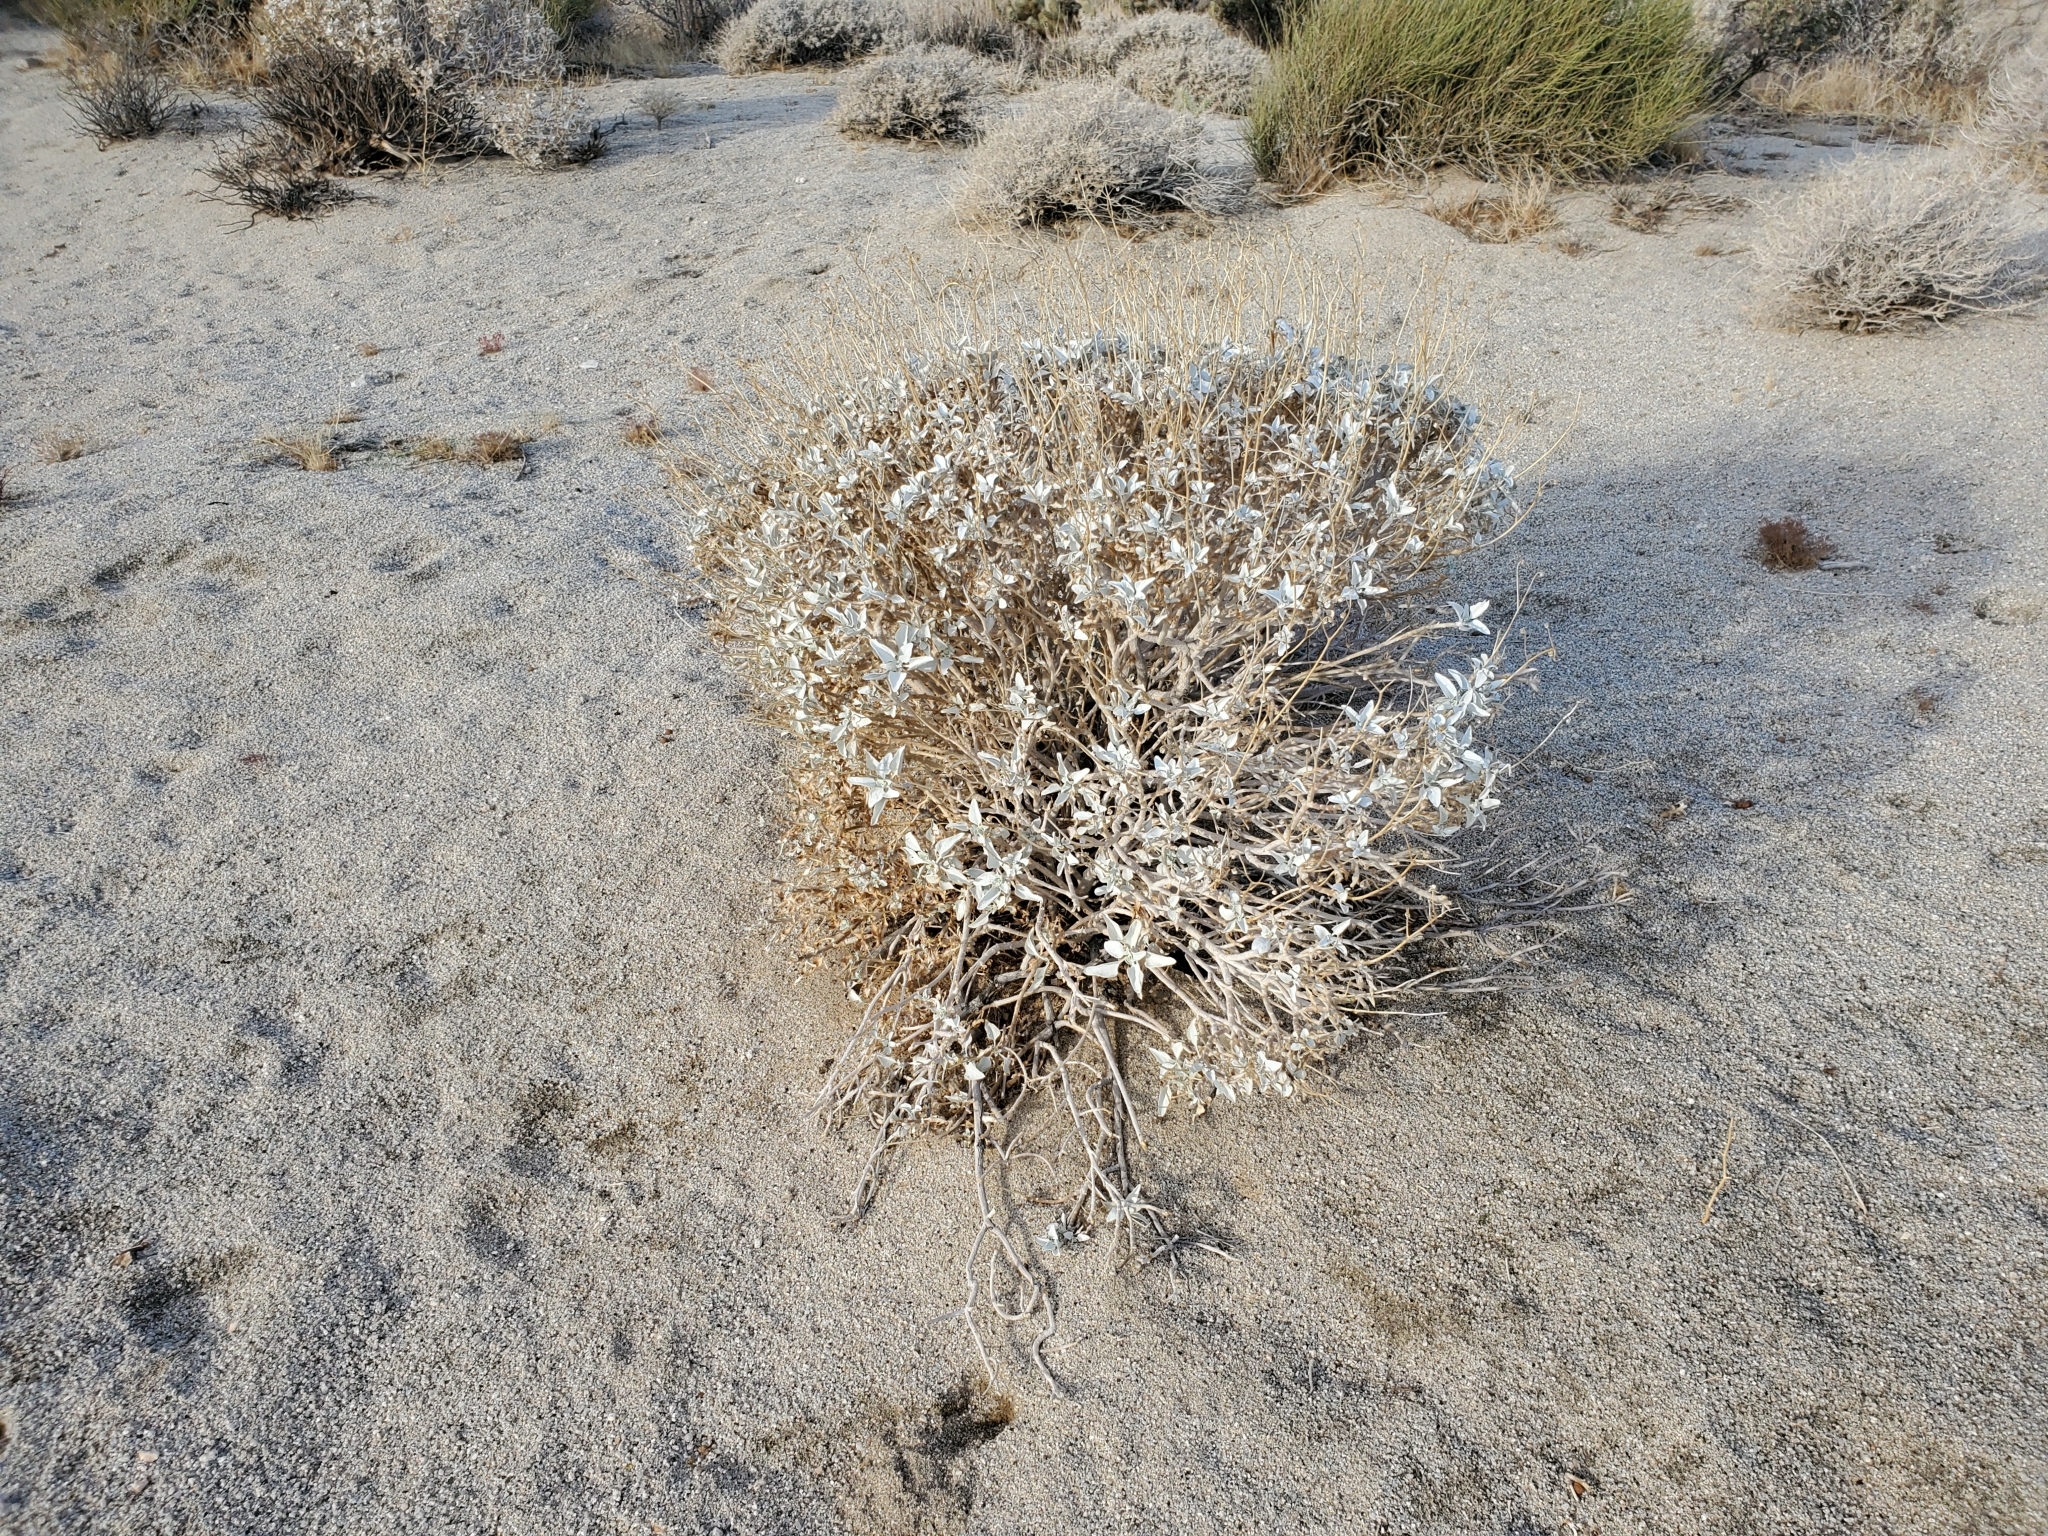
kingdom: Plantae
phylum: Tracheophyta
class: Magnoliopsida
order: Asterales
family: Asteraceae
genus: Encelia
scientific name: Encelia farinosa
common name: Brittlebush
